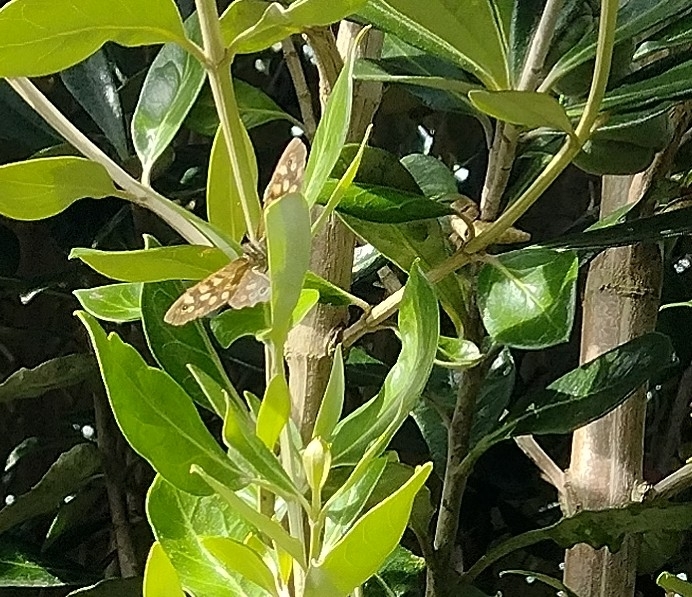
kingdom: Animalia
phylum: Arthropoda
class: Insecta
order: Lepidoptera
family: Nymphalidae
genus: Pararge
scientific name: Pararge aegeria
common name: Speckled wood
